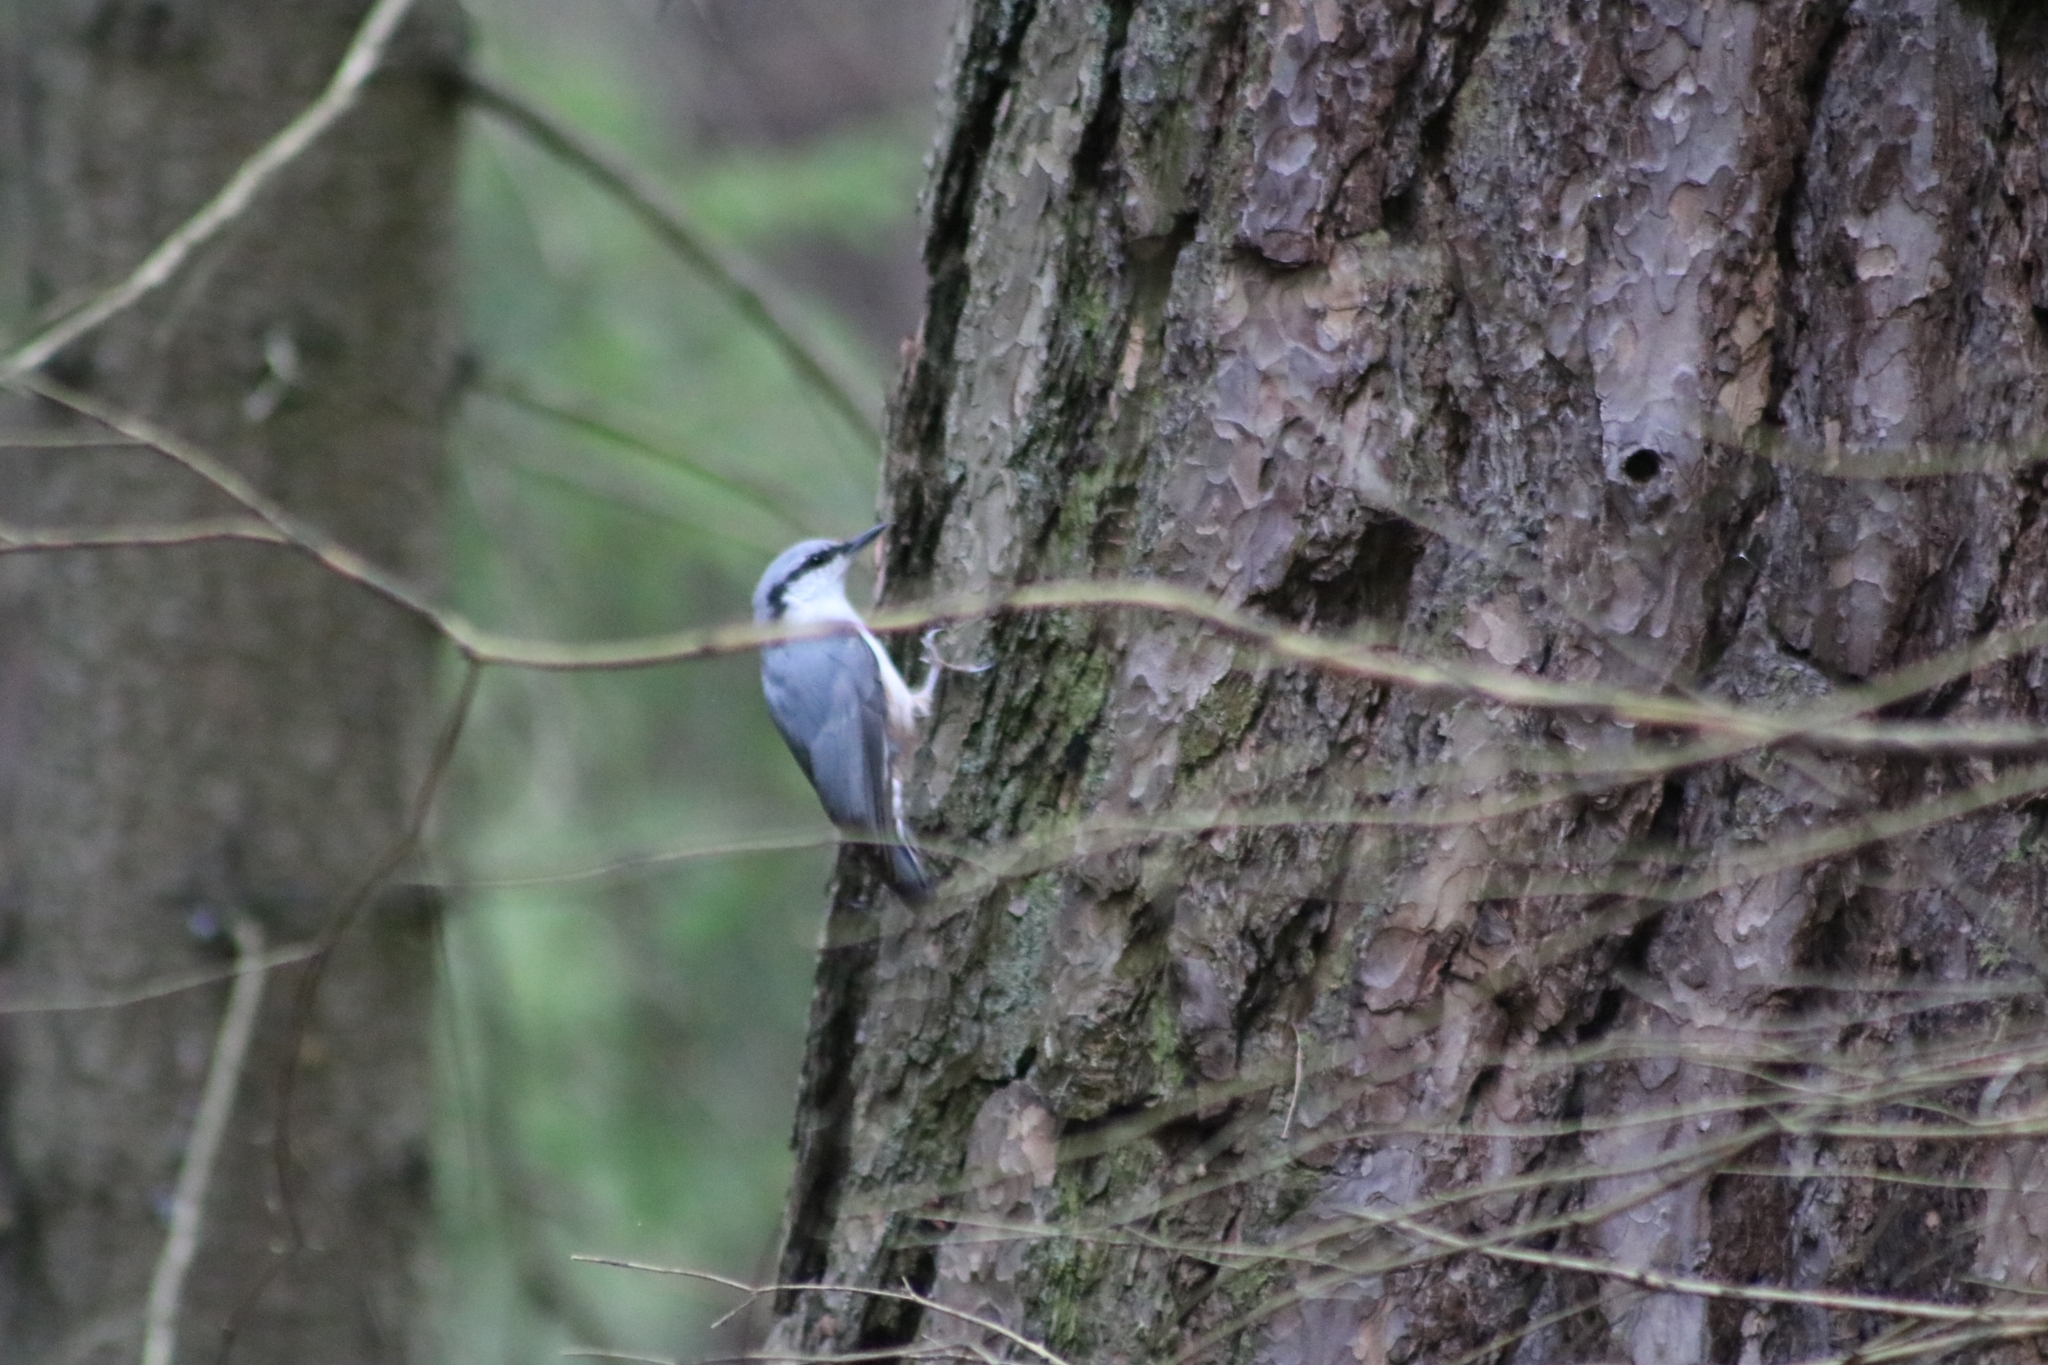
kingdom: Animalia
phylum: Chordata
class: Aves
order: Passeriformes
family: Sittidae
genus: Sitta
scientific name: Sitta europaea
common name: Eurasian nuthatch
